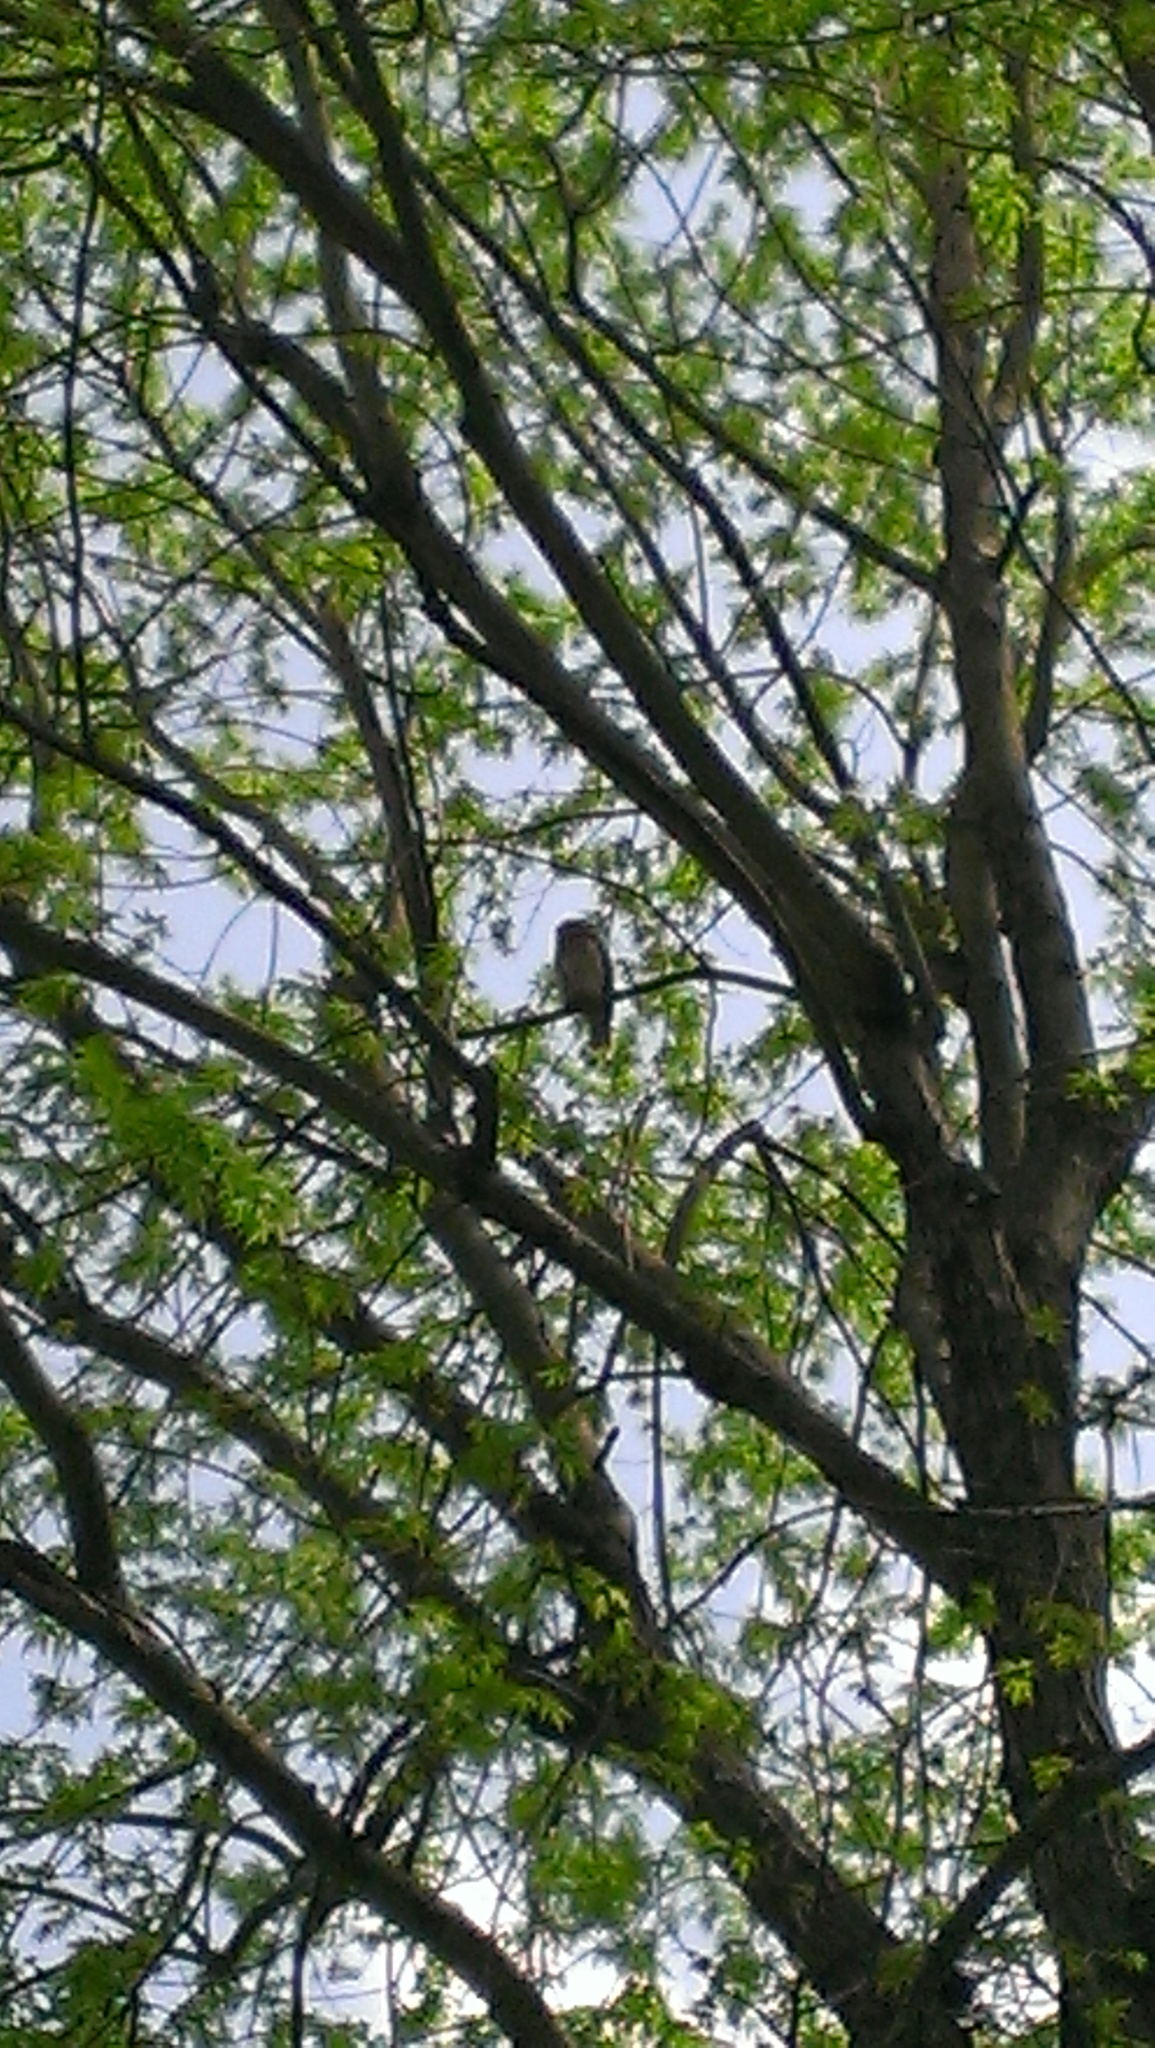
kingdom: Animalia
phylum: Chordata
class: Aves
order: Strigiformes
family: Strigidae
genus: Strix
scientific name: Strix varia
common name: Barred owl
